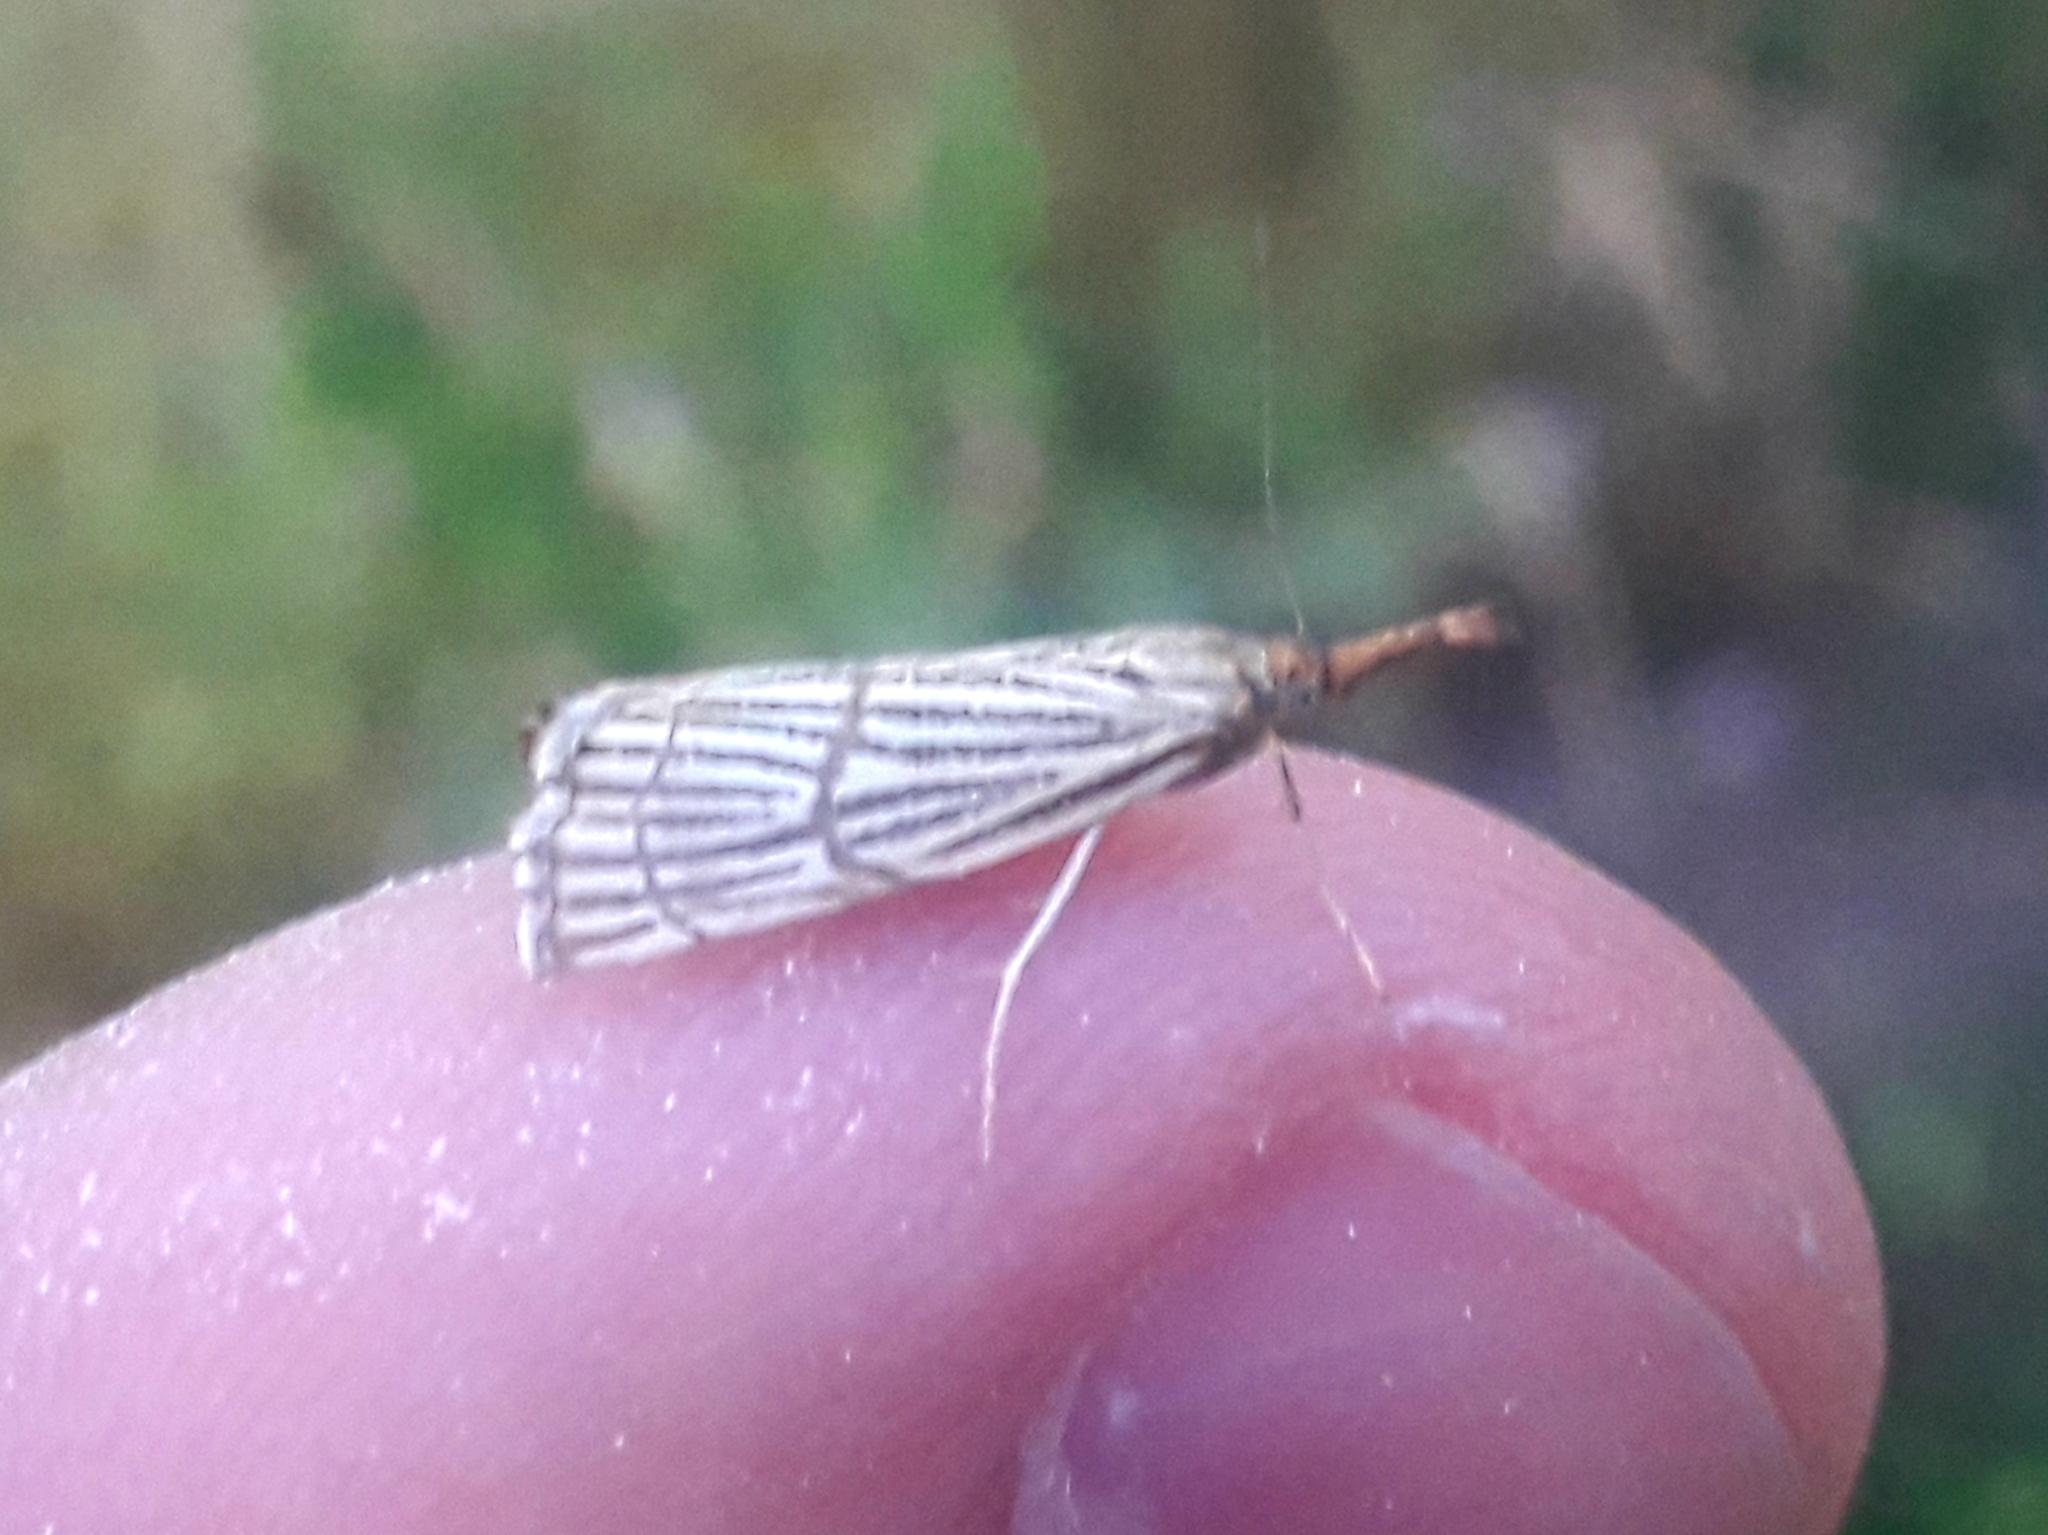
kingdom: Animalia
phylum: Arthropoda
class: Insecta
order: Lepidoptera
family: Crambidae
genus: Chrysocrambus
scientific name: Chrysocrambus linetella
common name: Orange-bar grass-veneer
